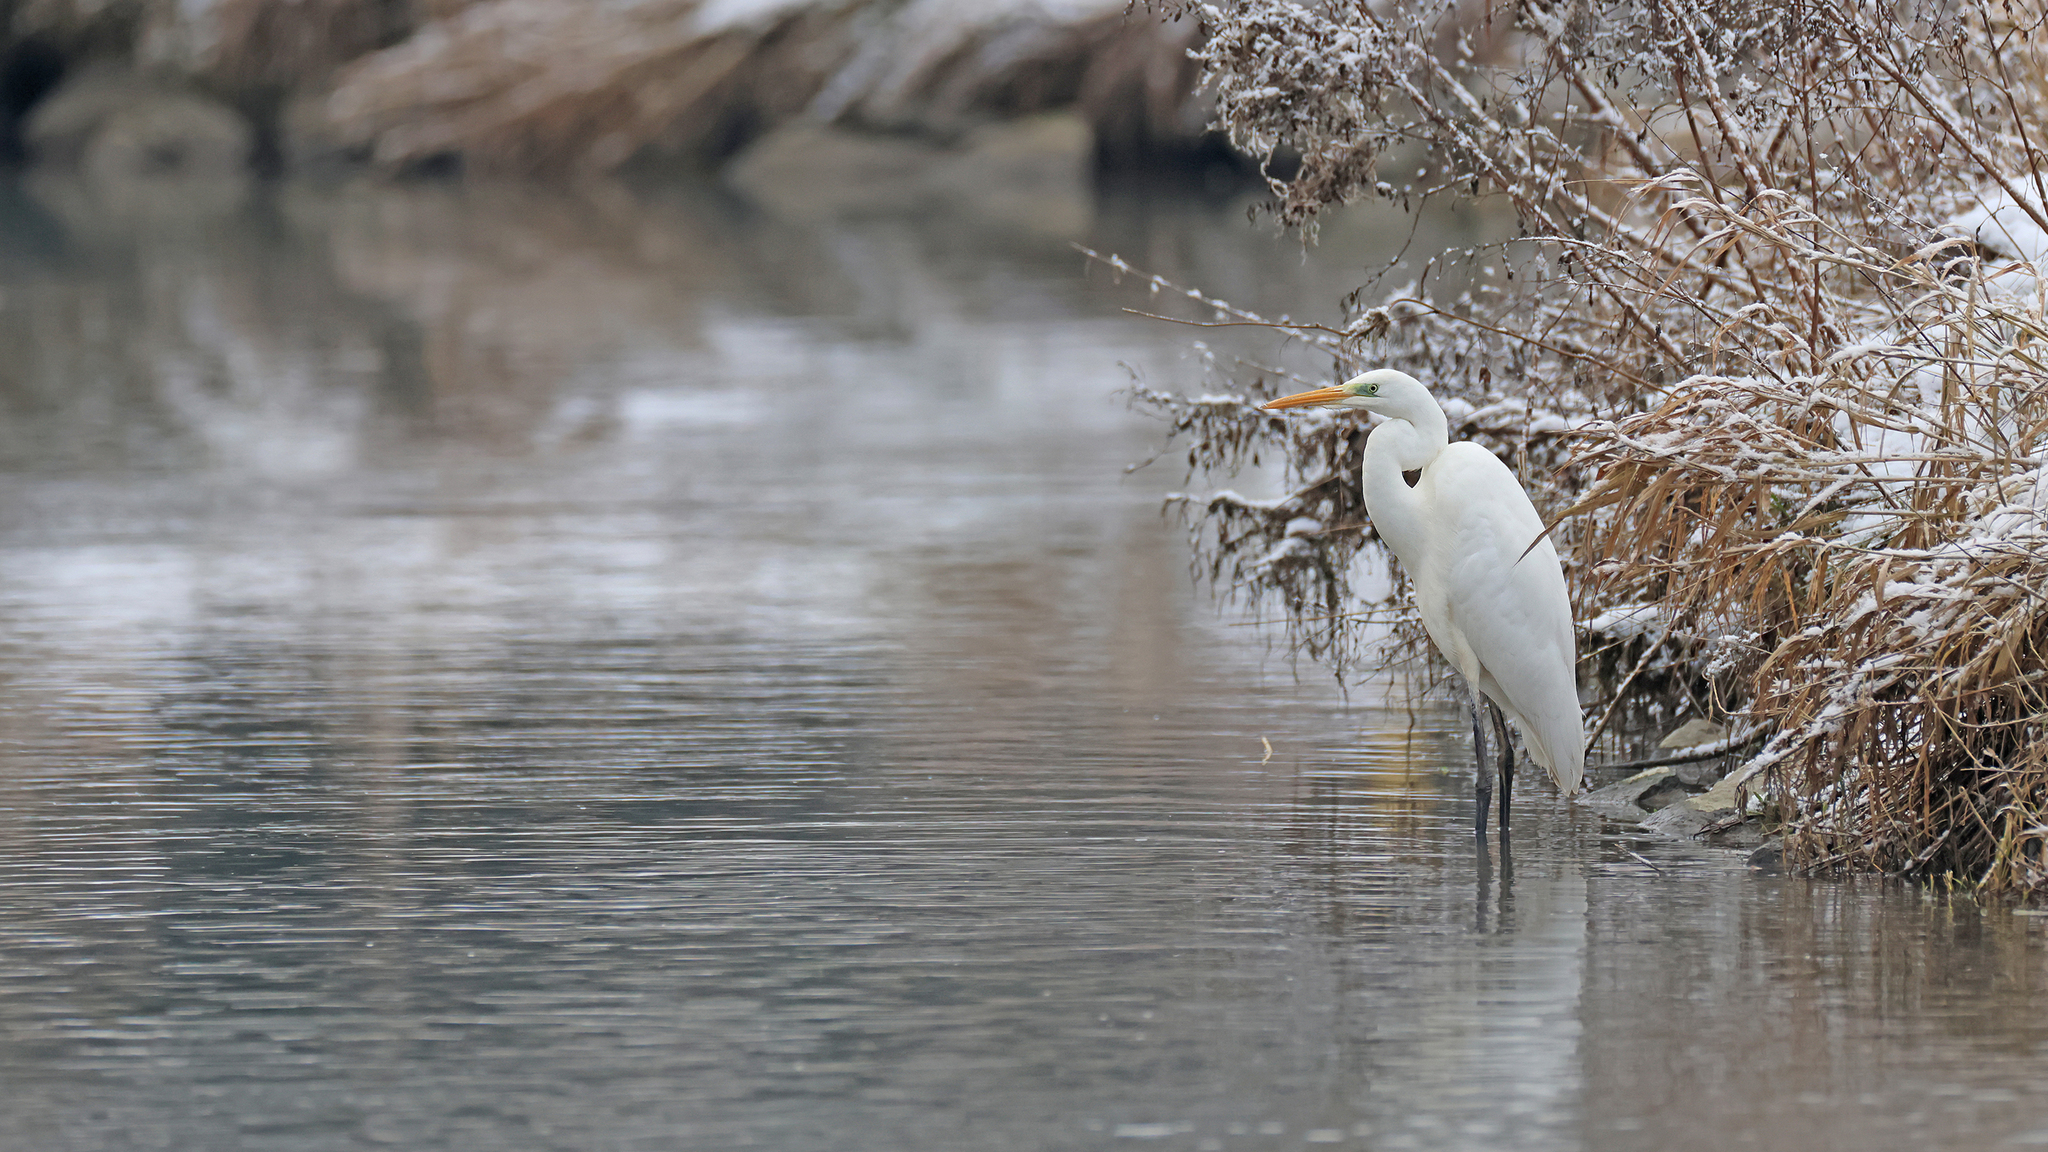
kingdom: Animalia
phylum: Chordata
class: Aves
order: Pelecaniformes
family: Ardeidae
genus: Ardea
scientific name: Ardea alba
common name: Great egret
